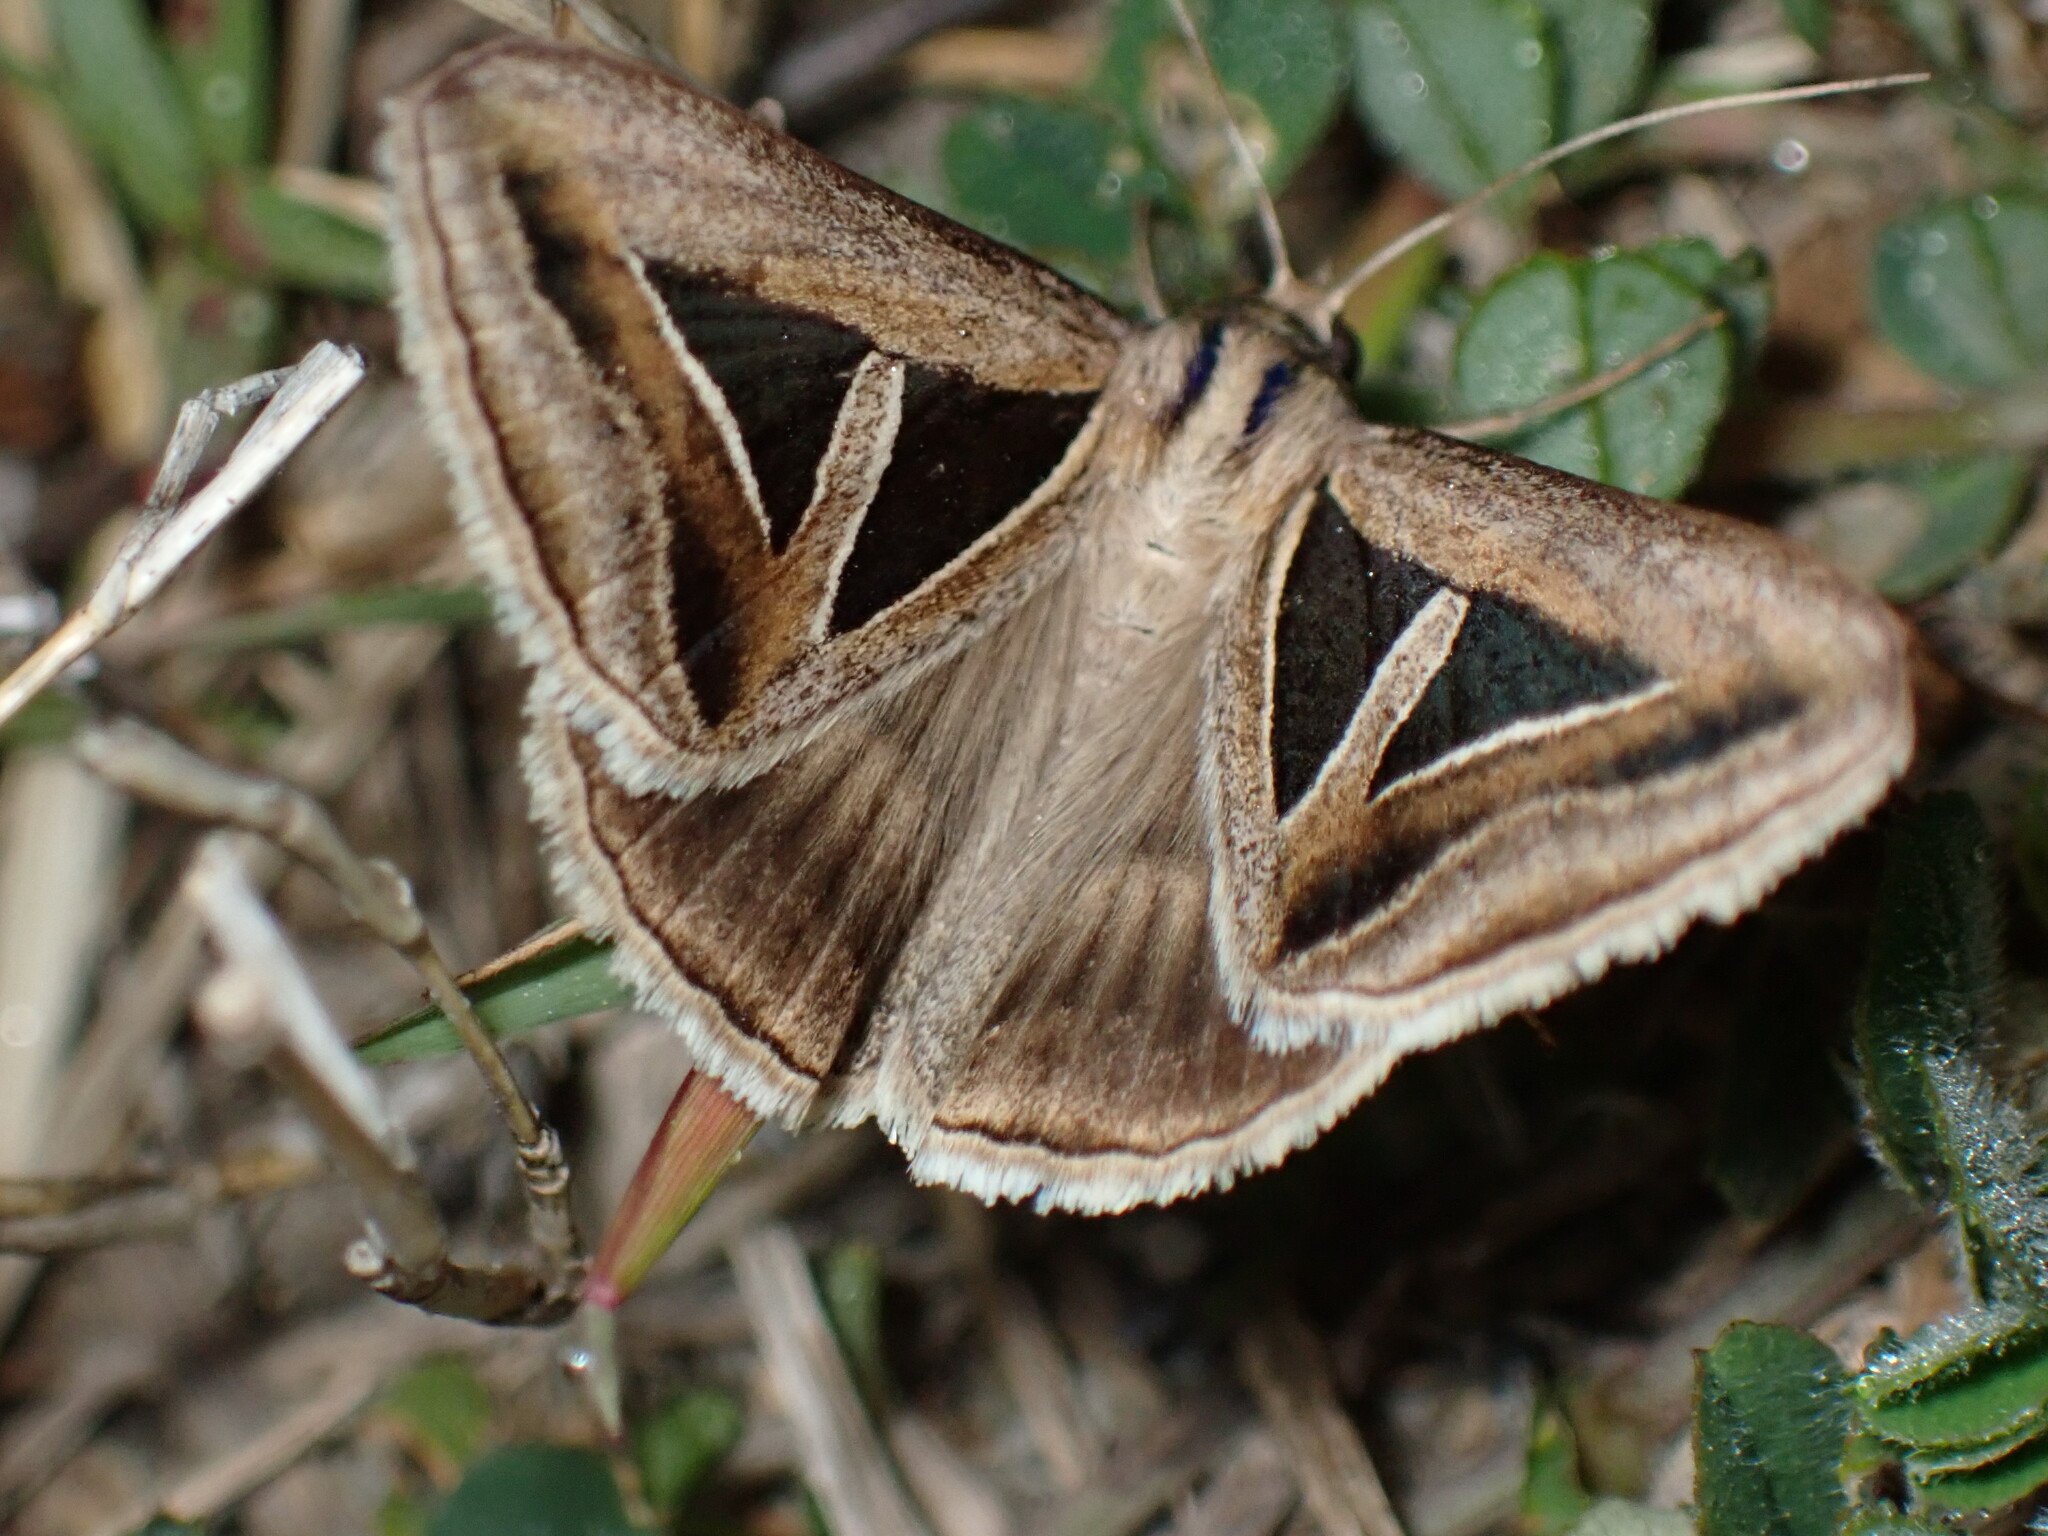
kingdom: Animalia
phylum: Arthropoda
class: Insecta
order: Lepidoptera
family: Erebidae
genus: Trigonodes
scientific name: Trigonodes hyppasia
